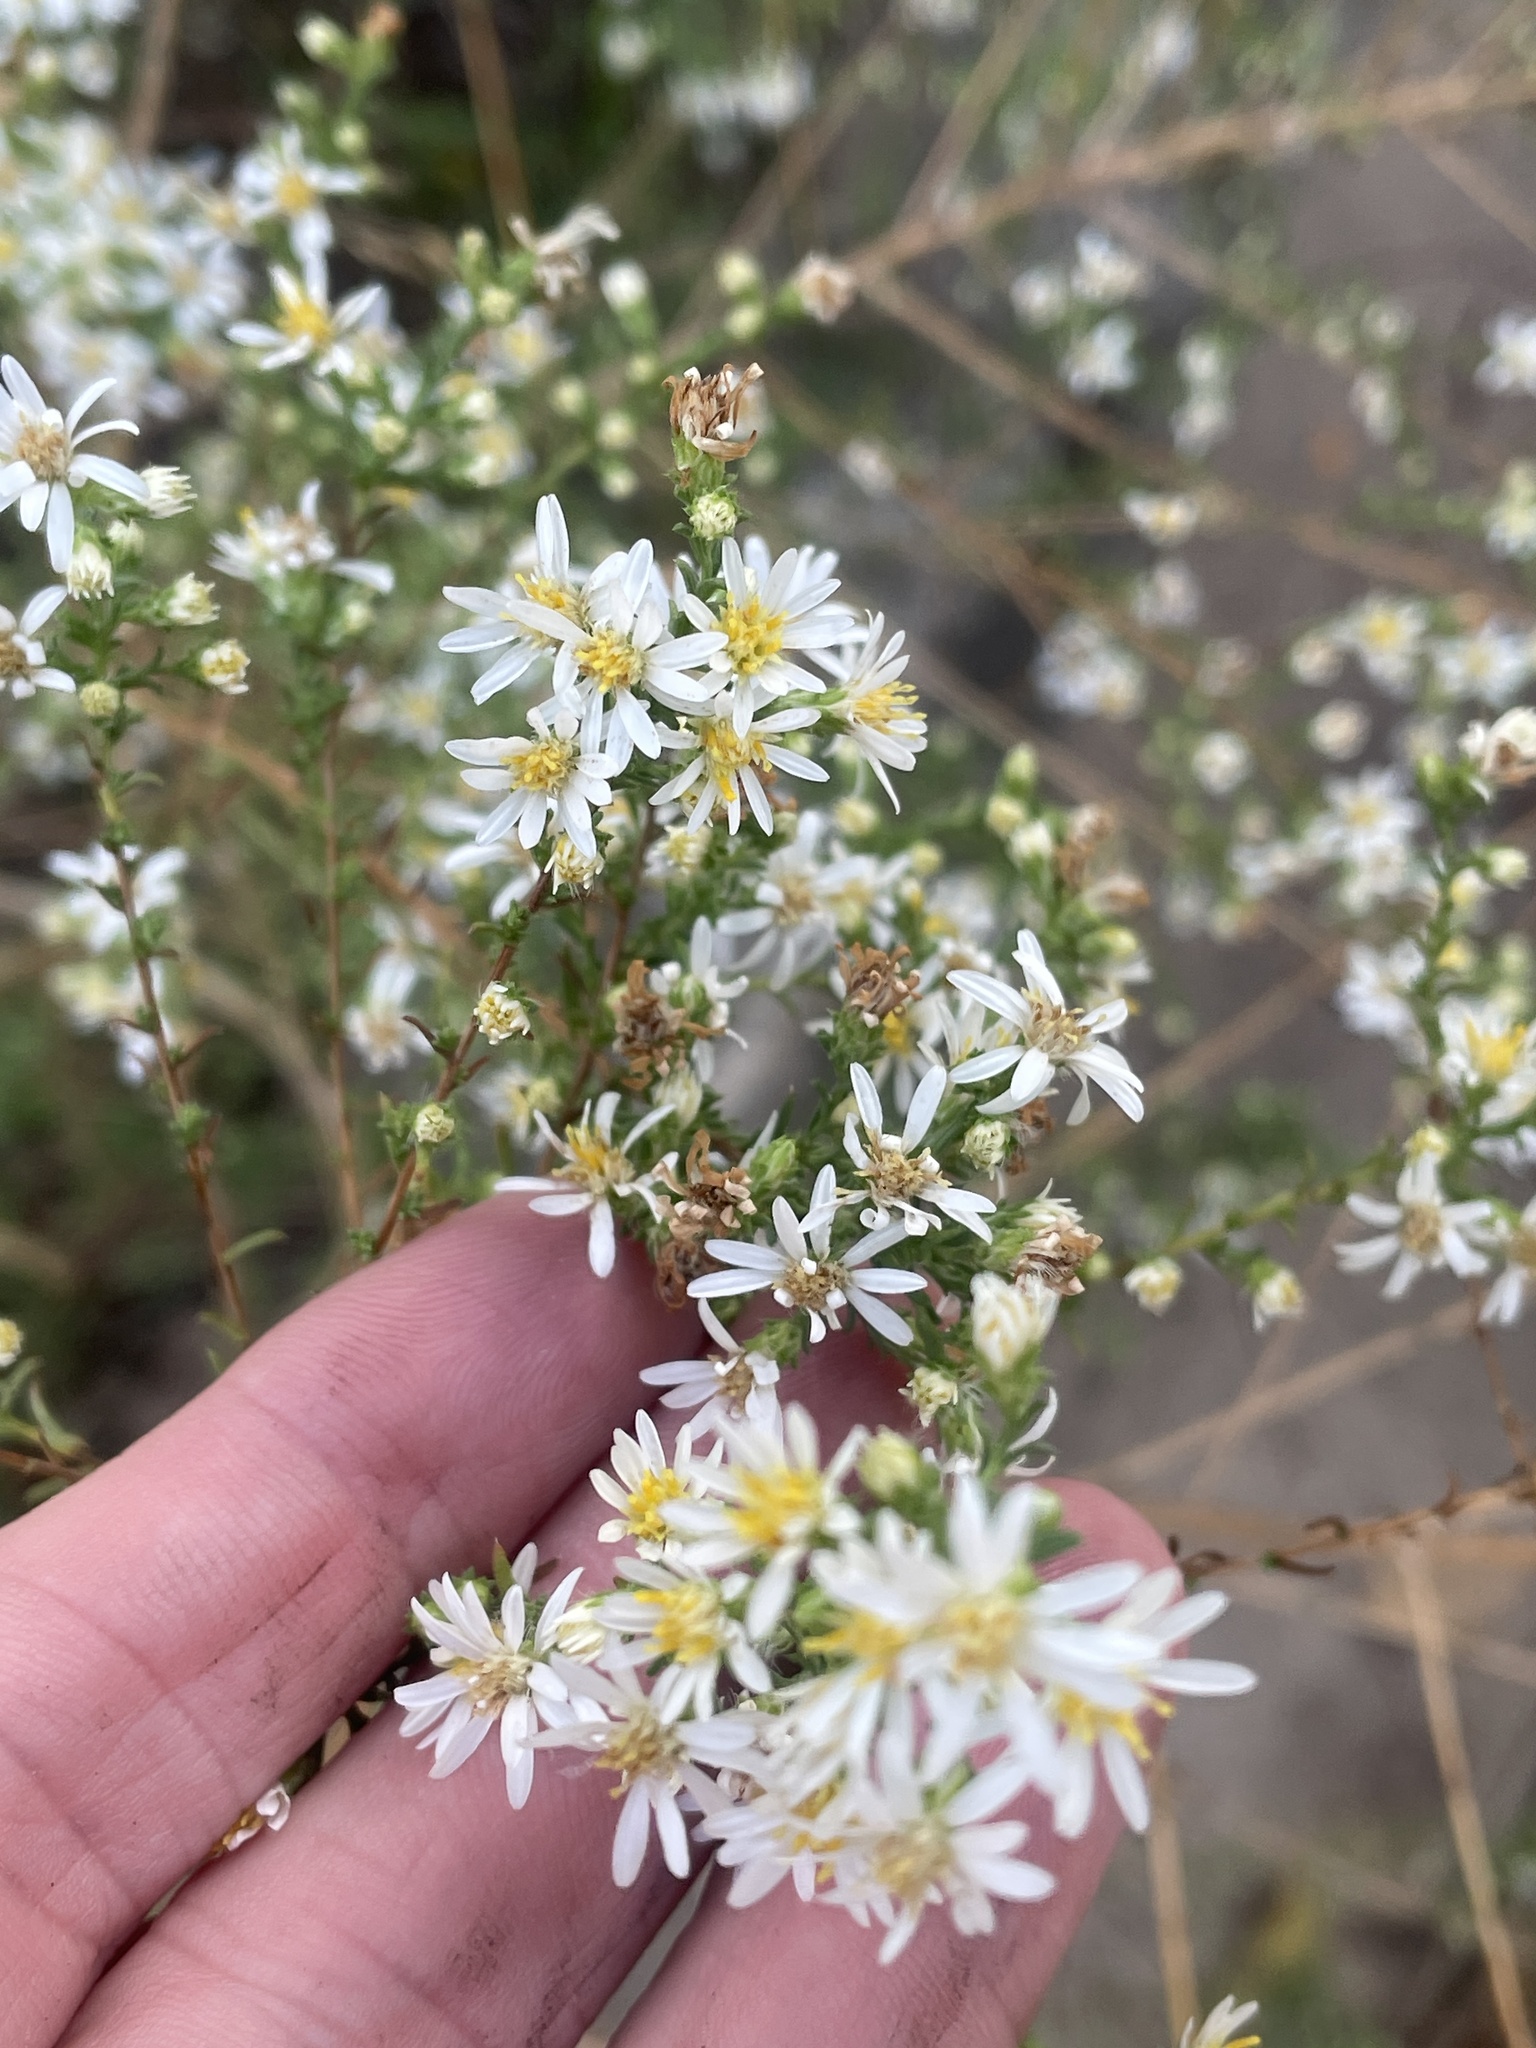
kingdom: Plantae
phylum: Tracheophyta
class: Magnoliopsida
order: Asterales
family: Asteraceae
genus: Symphyotrichum
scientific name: Symphyotrichum ericoides
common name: Heath aster
